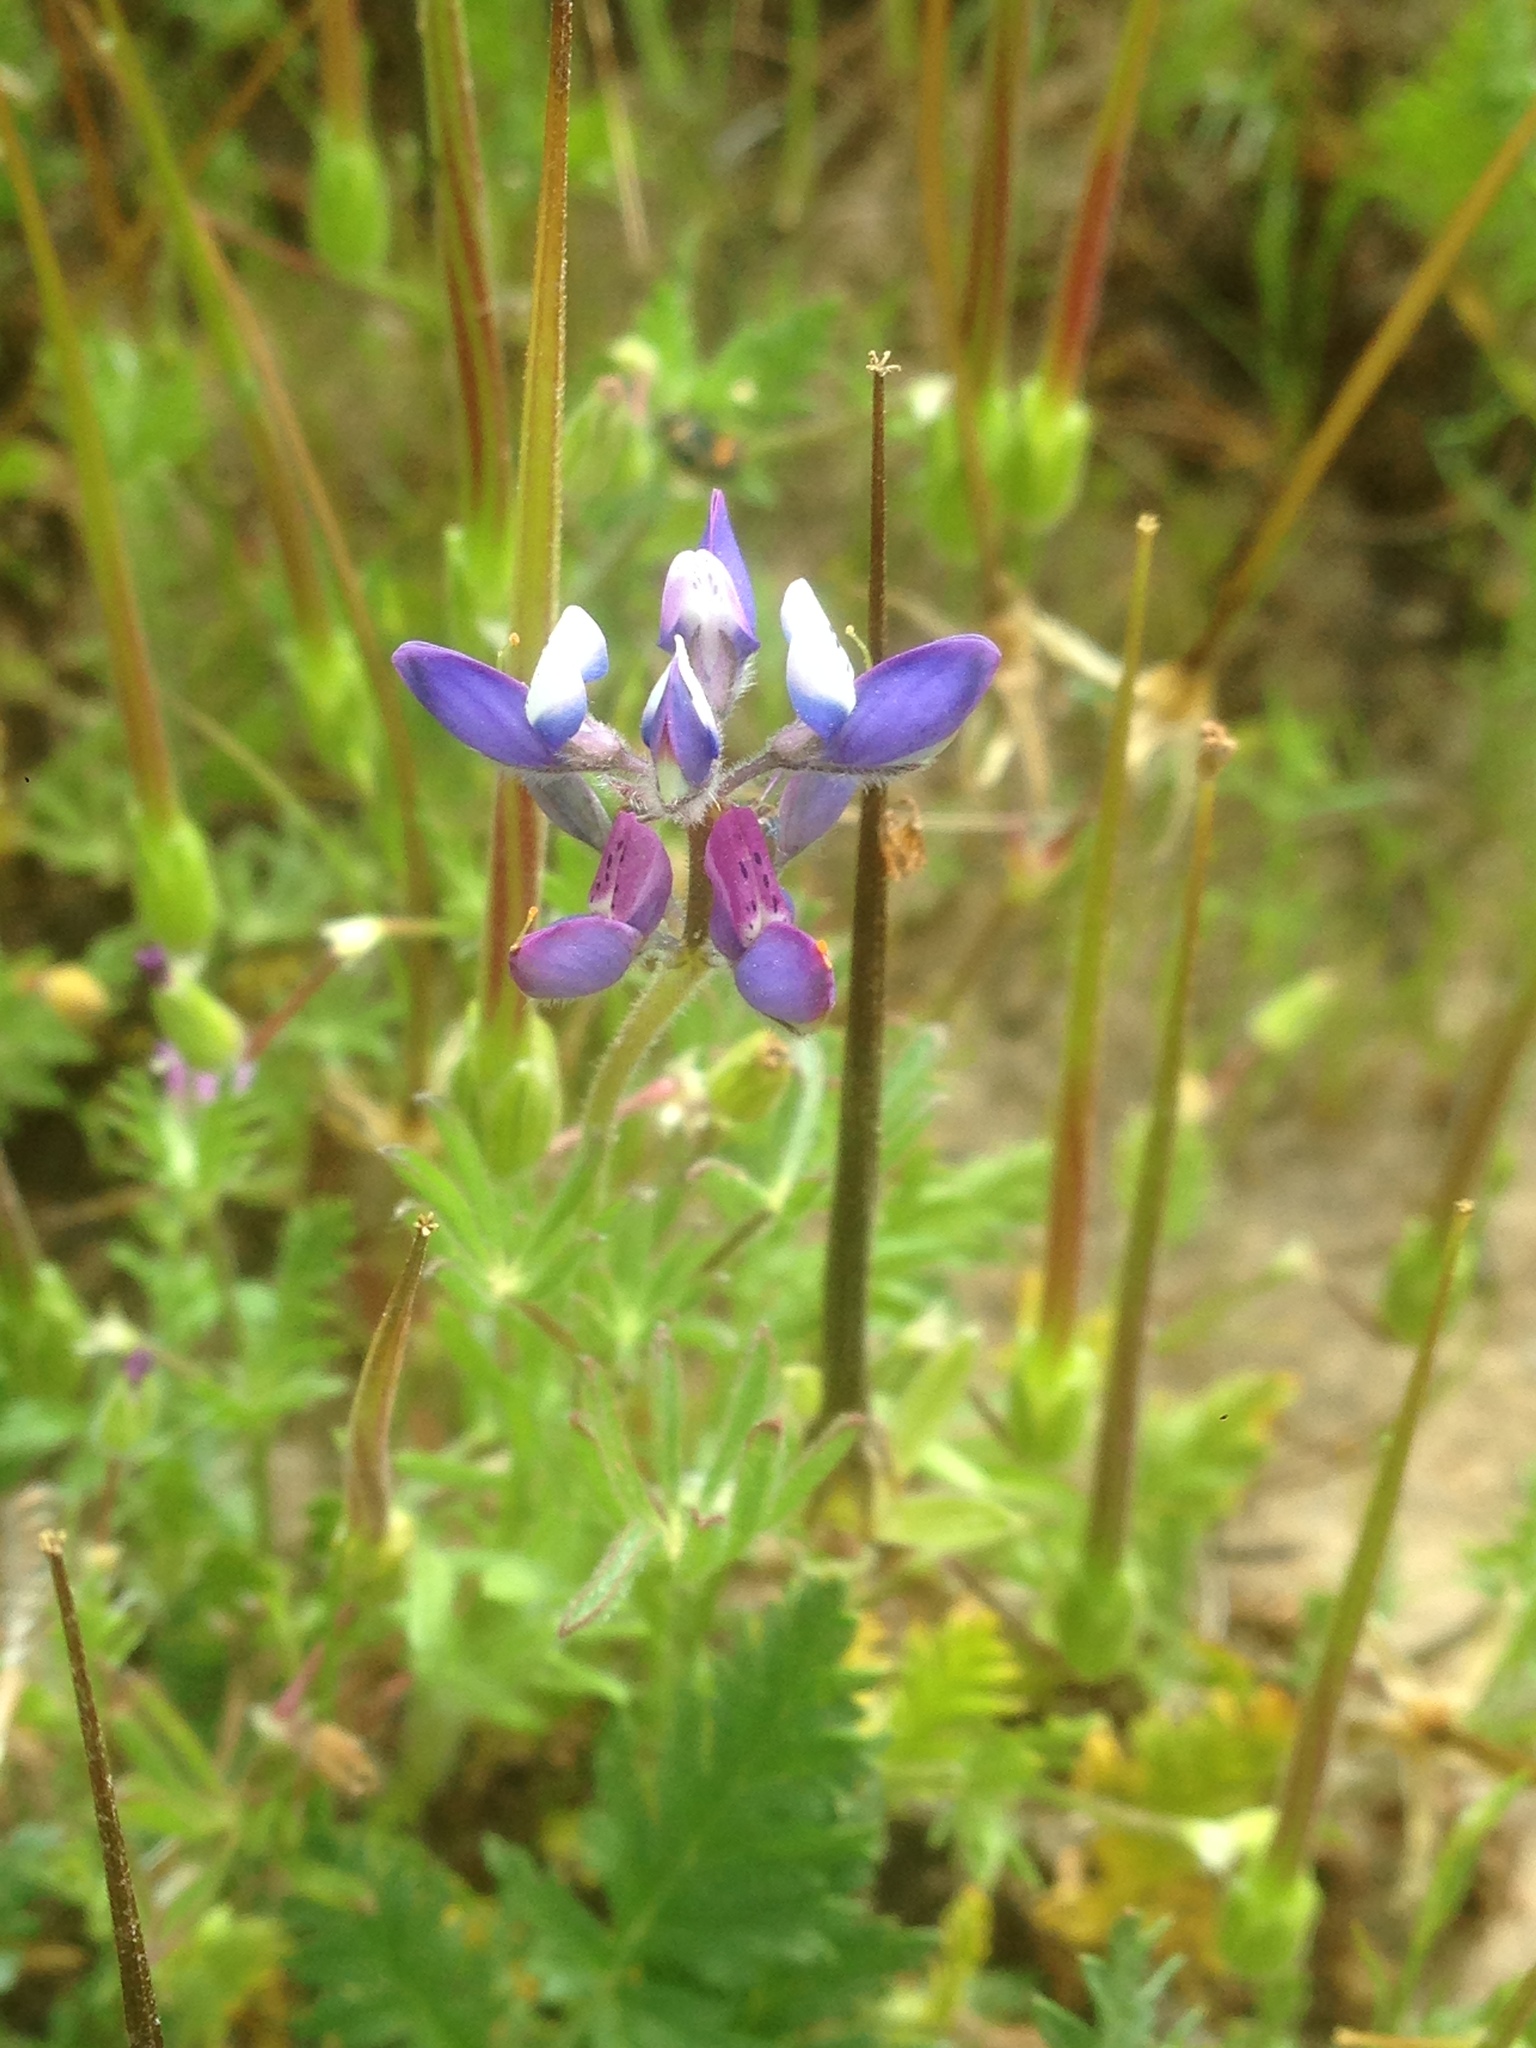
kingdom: Plantae
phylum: Tracheophyta
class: Magnoliopsida
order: Fabales
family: Fabaceae
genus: Lupinus
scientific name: Lupinus bicolor
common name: Miniature lupine
